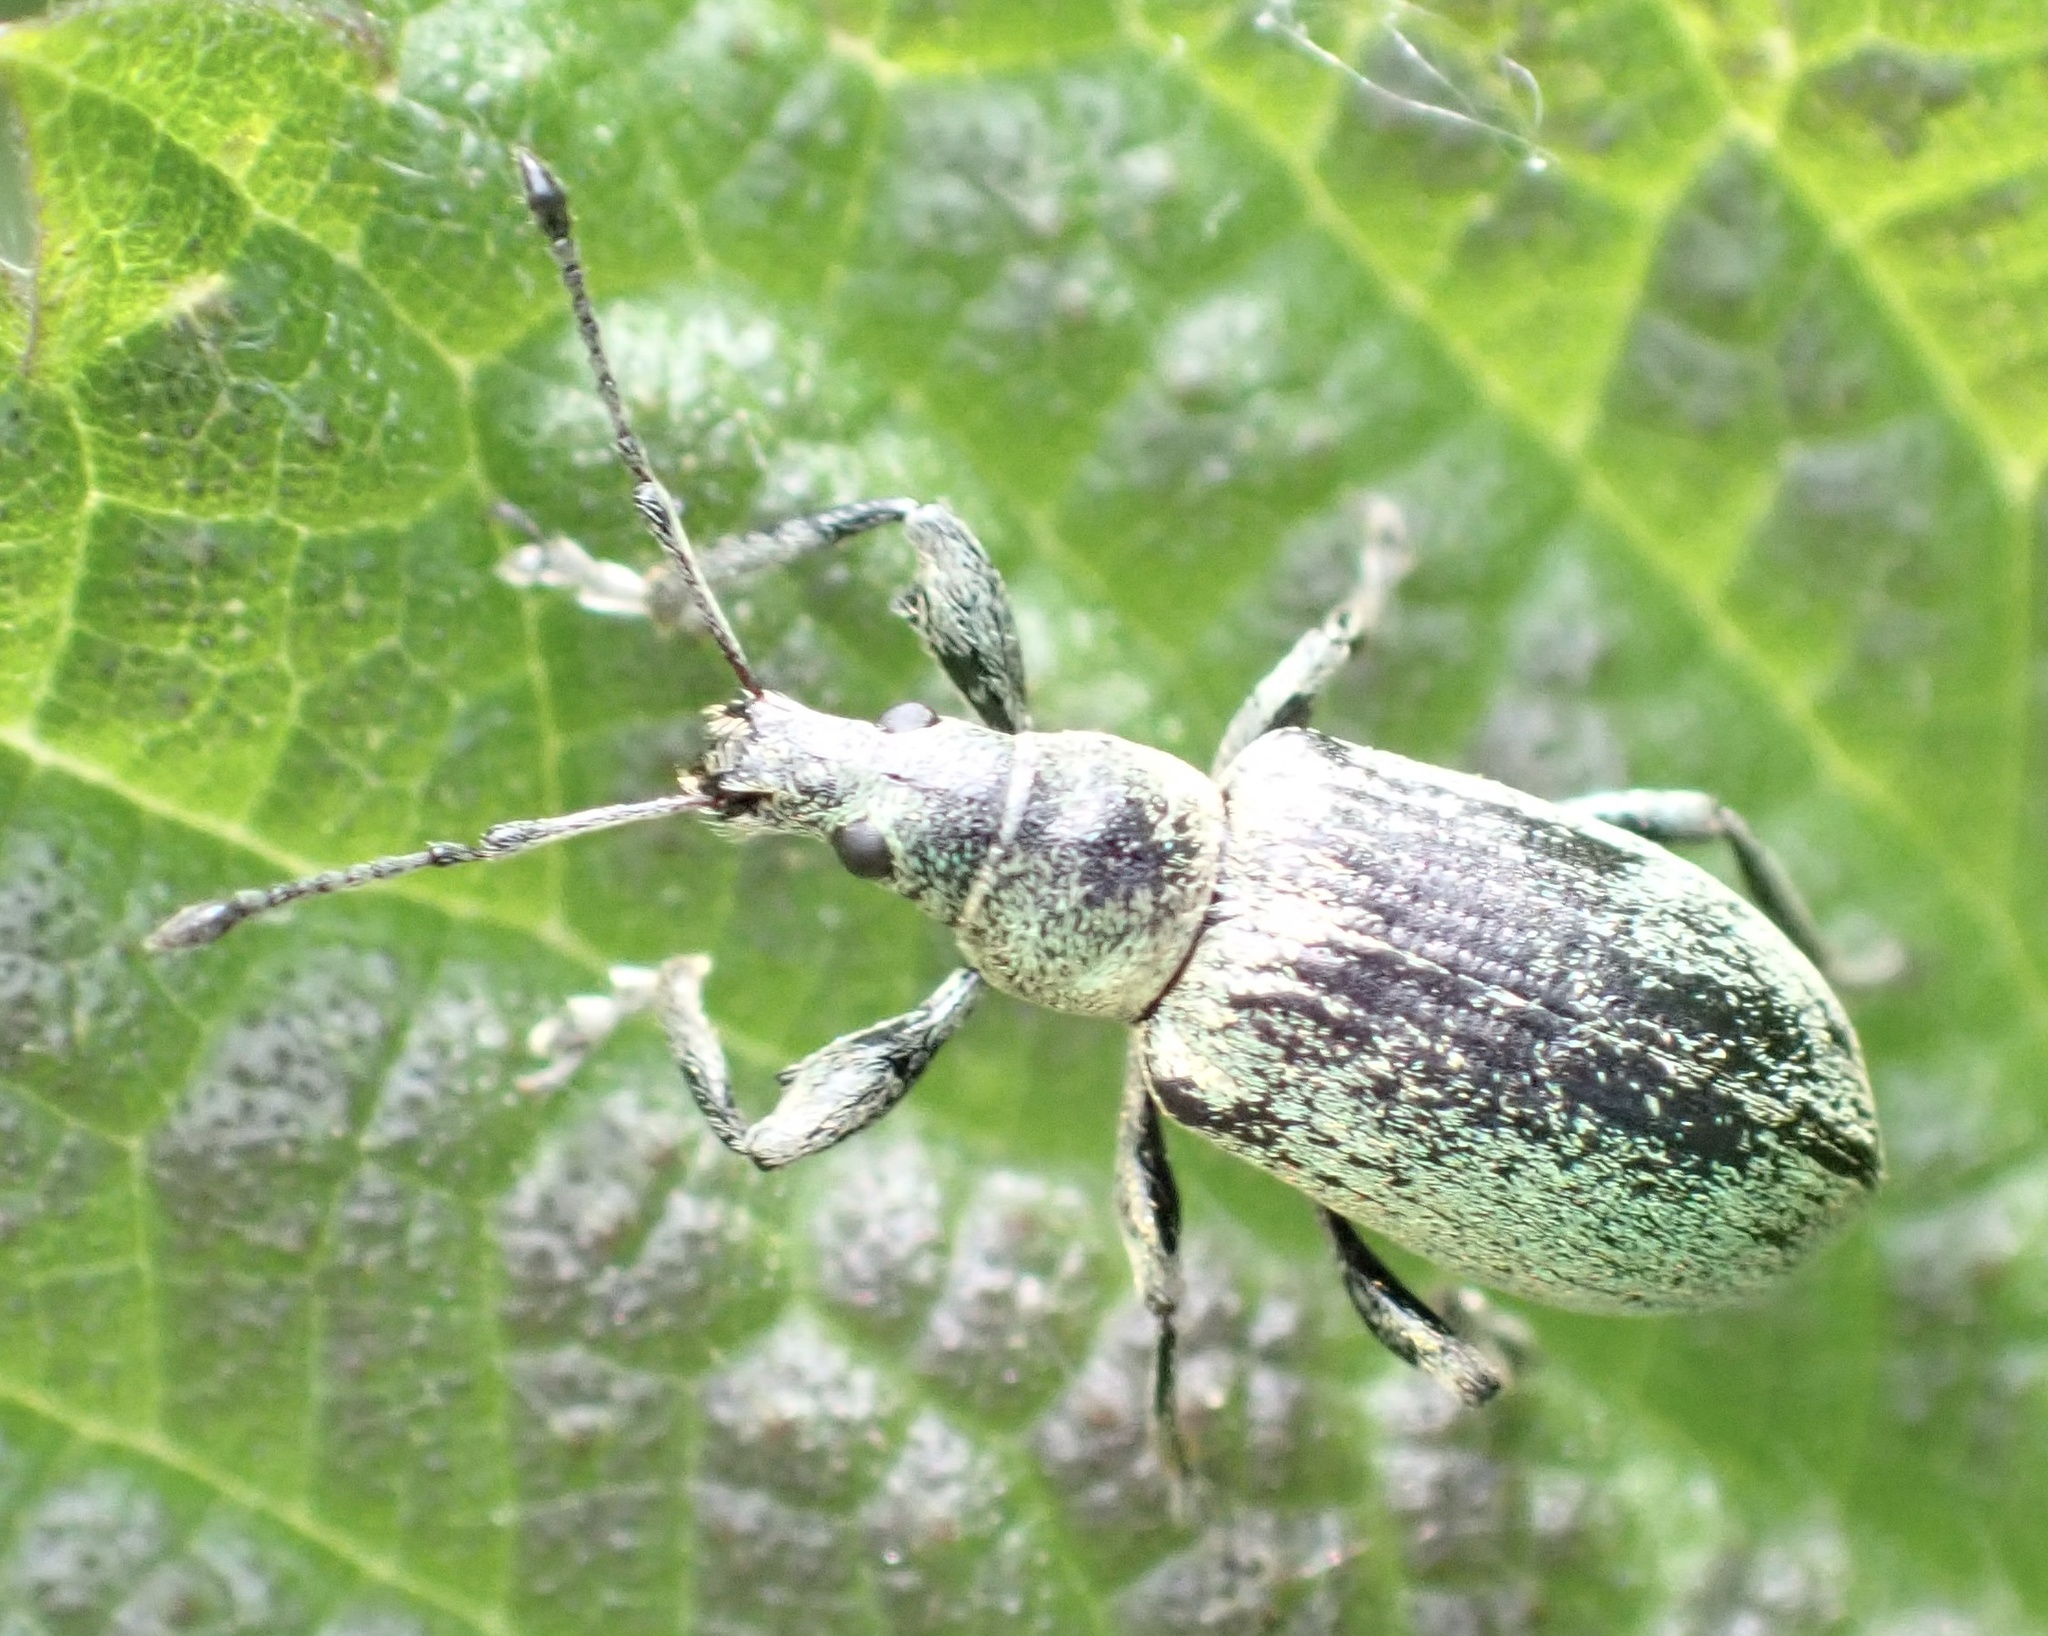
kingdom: Animalia
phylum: Arthropoda
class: Insecta
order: Coleoptera
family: Curculionidae
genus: Phyllobius
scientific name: Phyllobius pomaceus
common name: Green nettle weevil
